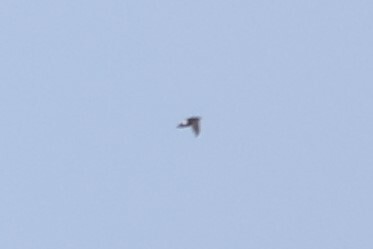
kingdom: Animalia
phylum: Chordata
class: Aves
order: Apodiformes
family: Apodidae
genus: Apus
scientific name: Apus affinis
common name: Little swift
